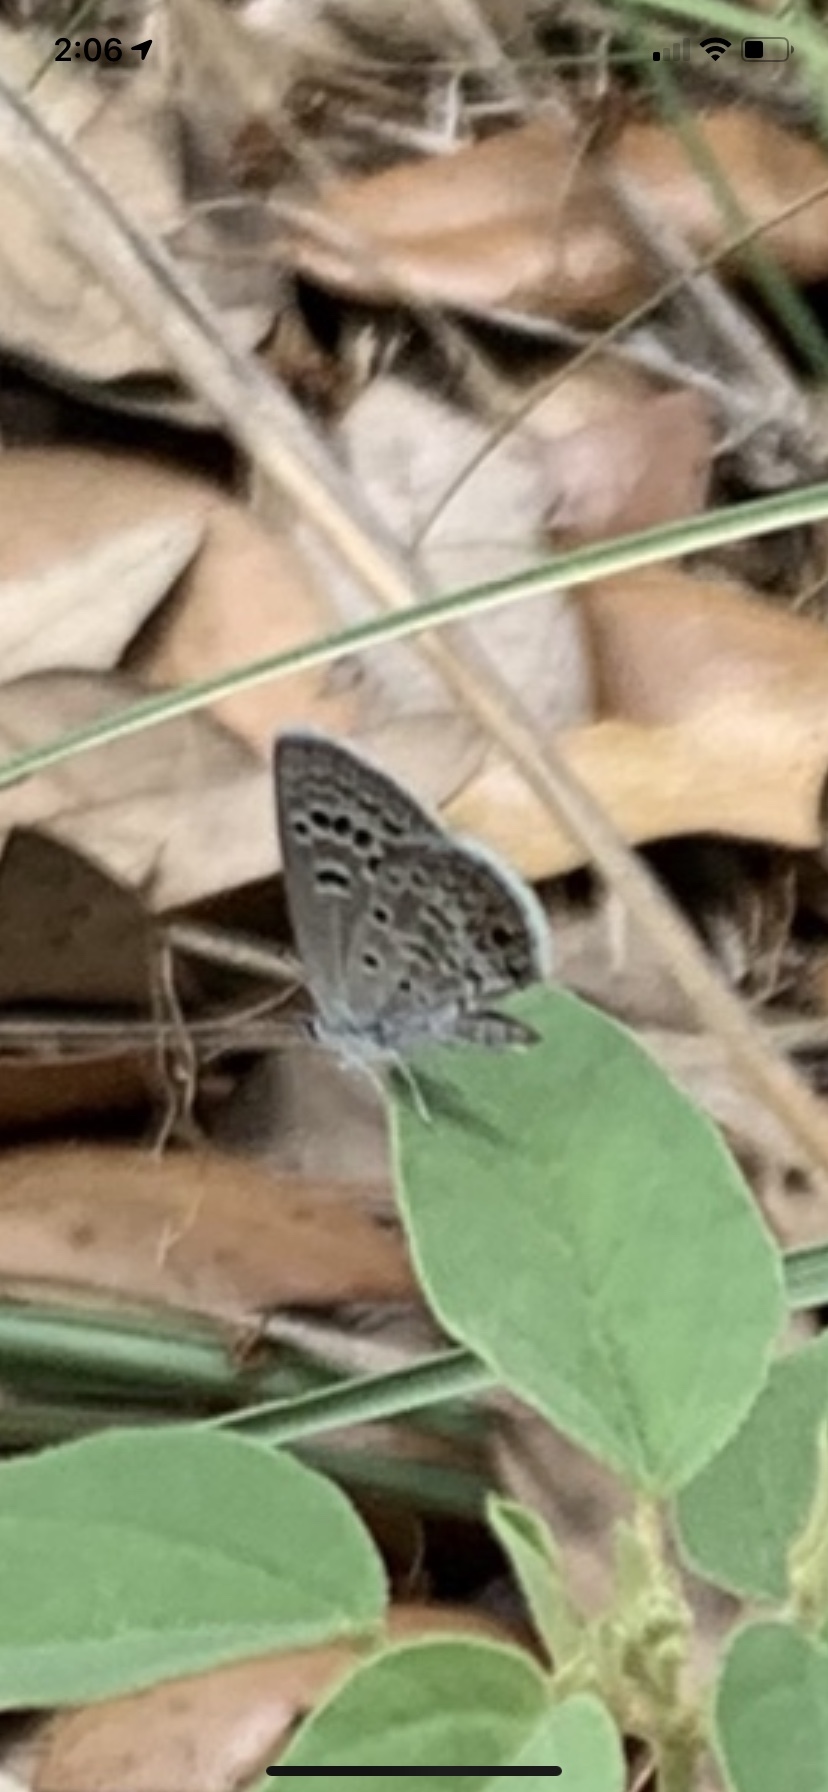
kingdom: Animalia
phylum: Arthropoda
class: Insecta
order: Lepidoptera
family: Lycaenidae
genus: Echinargus
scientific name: Echinargus isola
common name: Reakirt's blue
